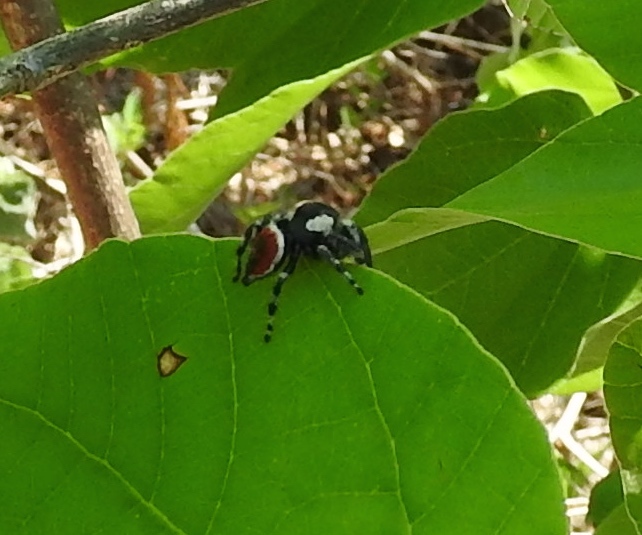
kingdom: Animalia
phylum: Arthropoda
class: Arachnida
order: Araneae
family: Salticidae
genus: Phidippus
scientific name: Phidippus californicus
